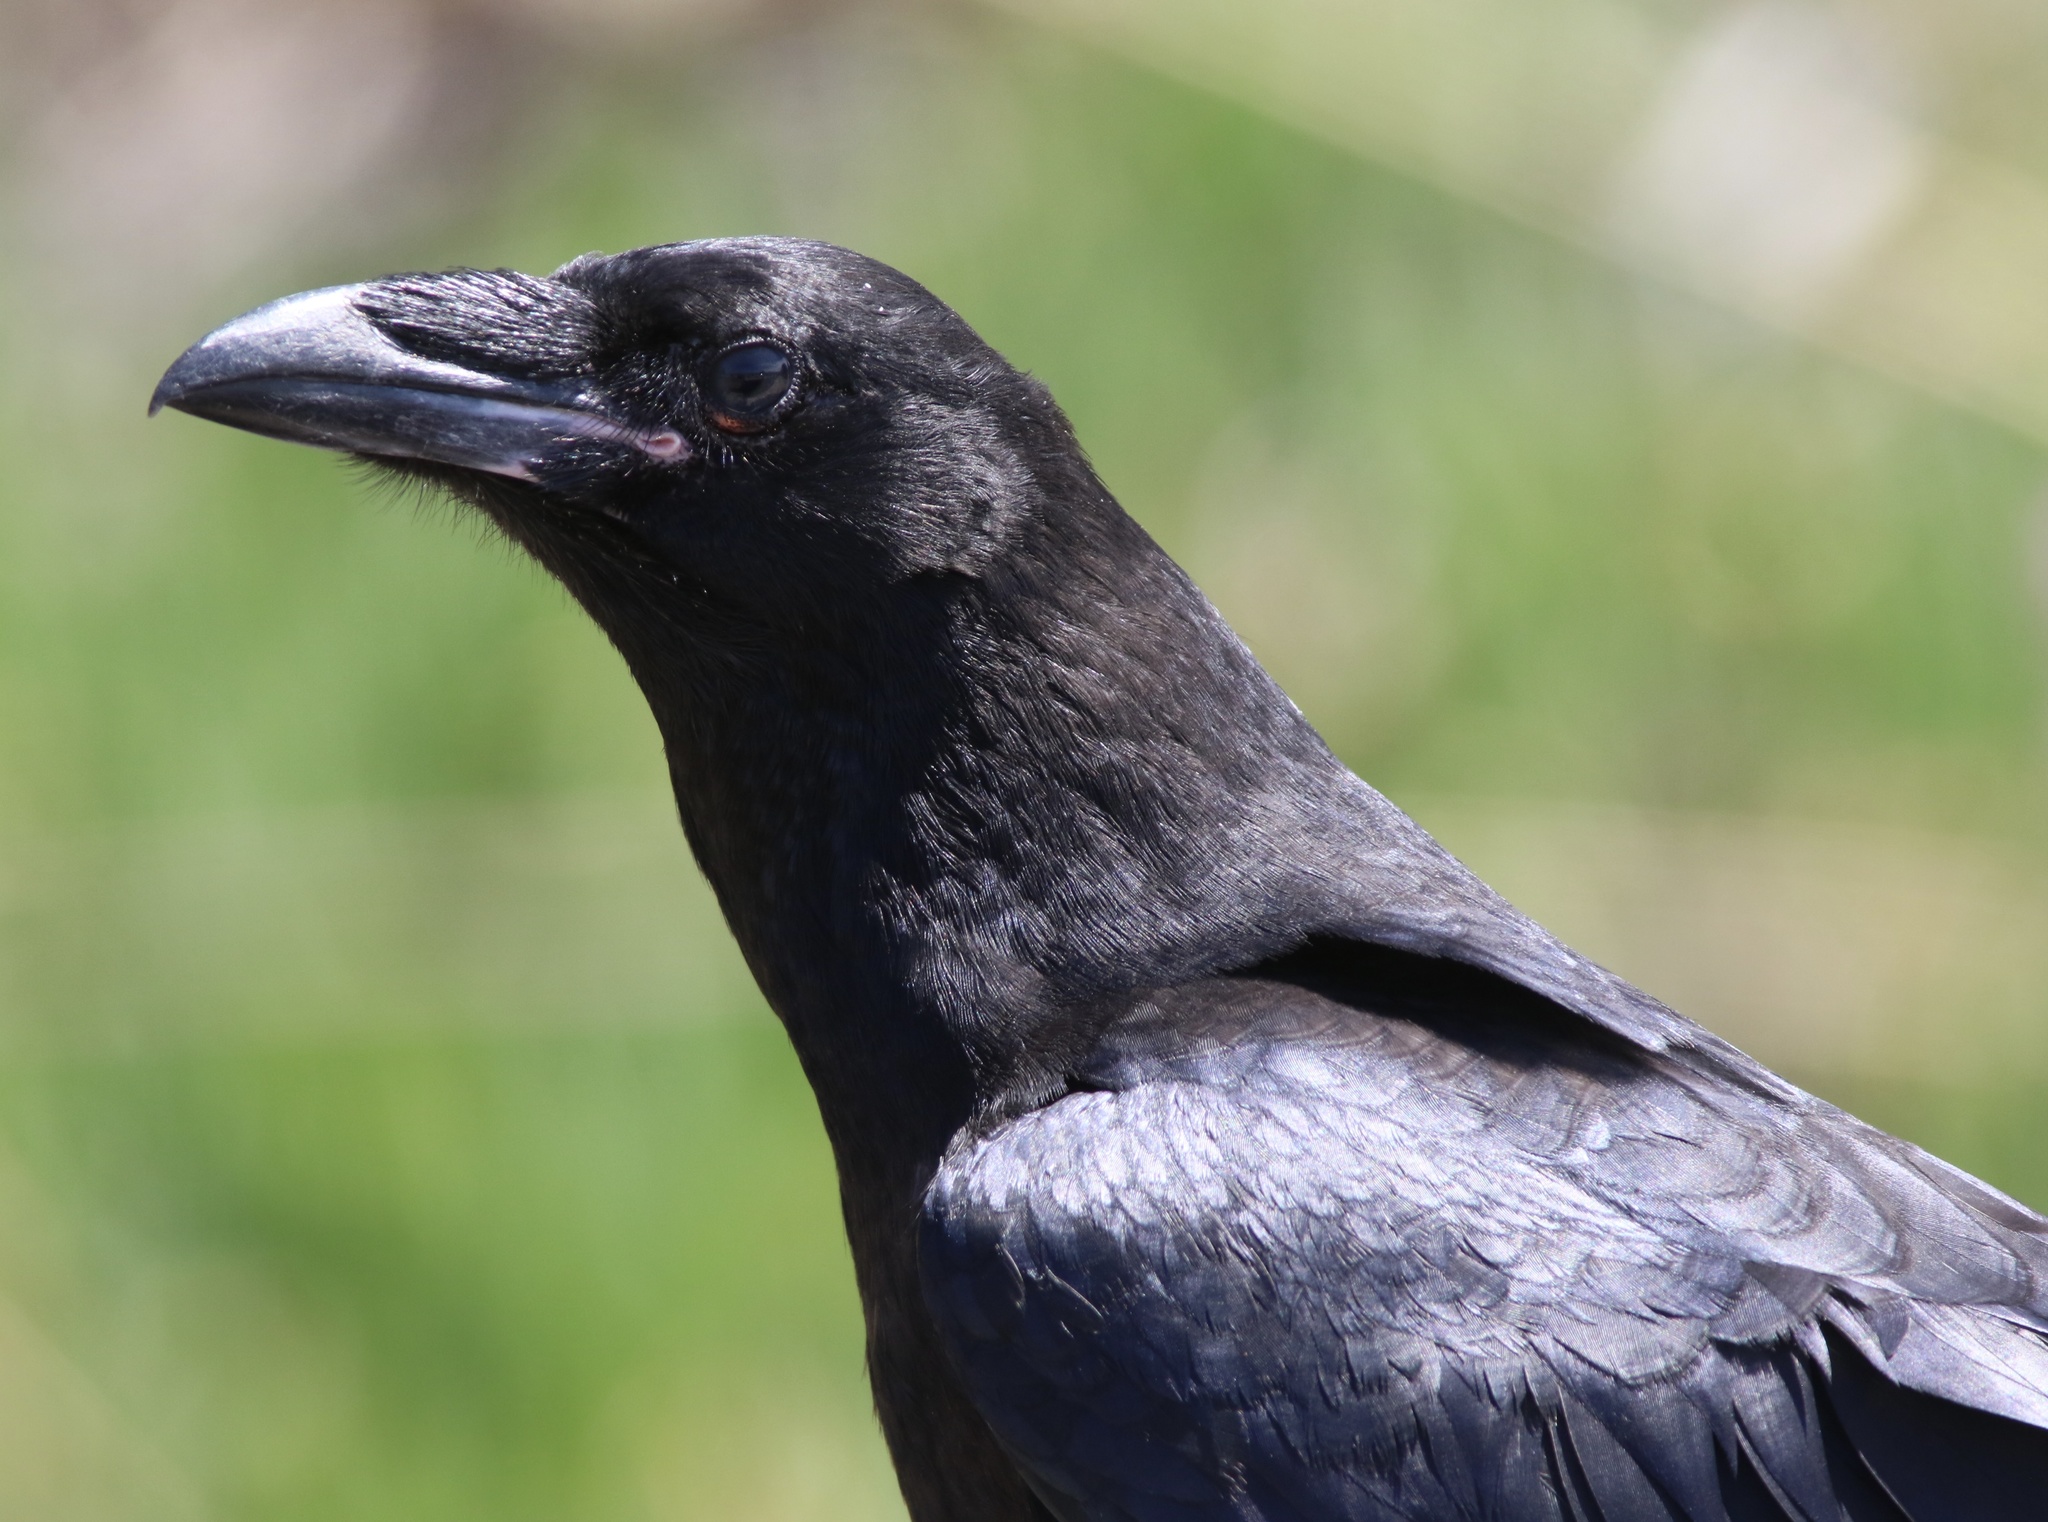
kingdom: Animalia
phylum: Chordata
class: Aves
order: Passeriformes
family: Corvidae
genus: Corvus
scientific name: Corvus corax
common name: Common raven
